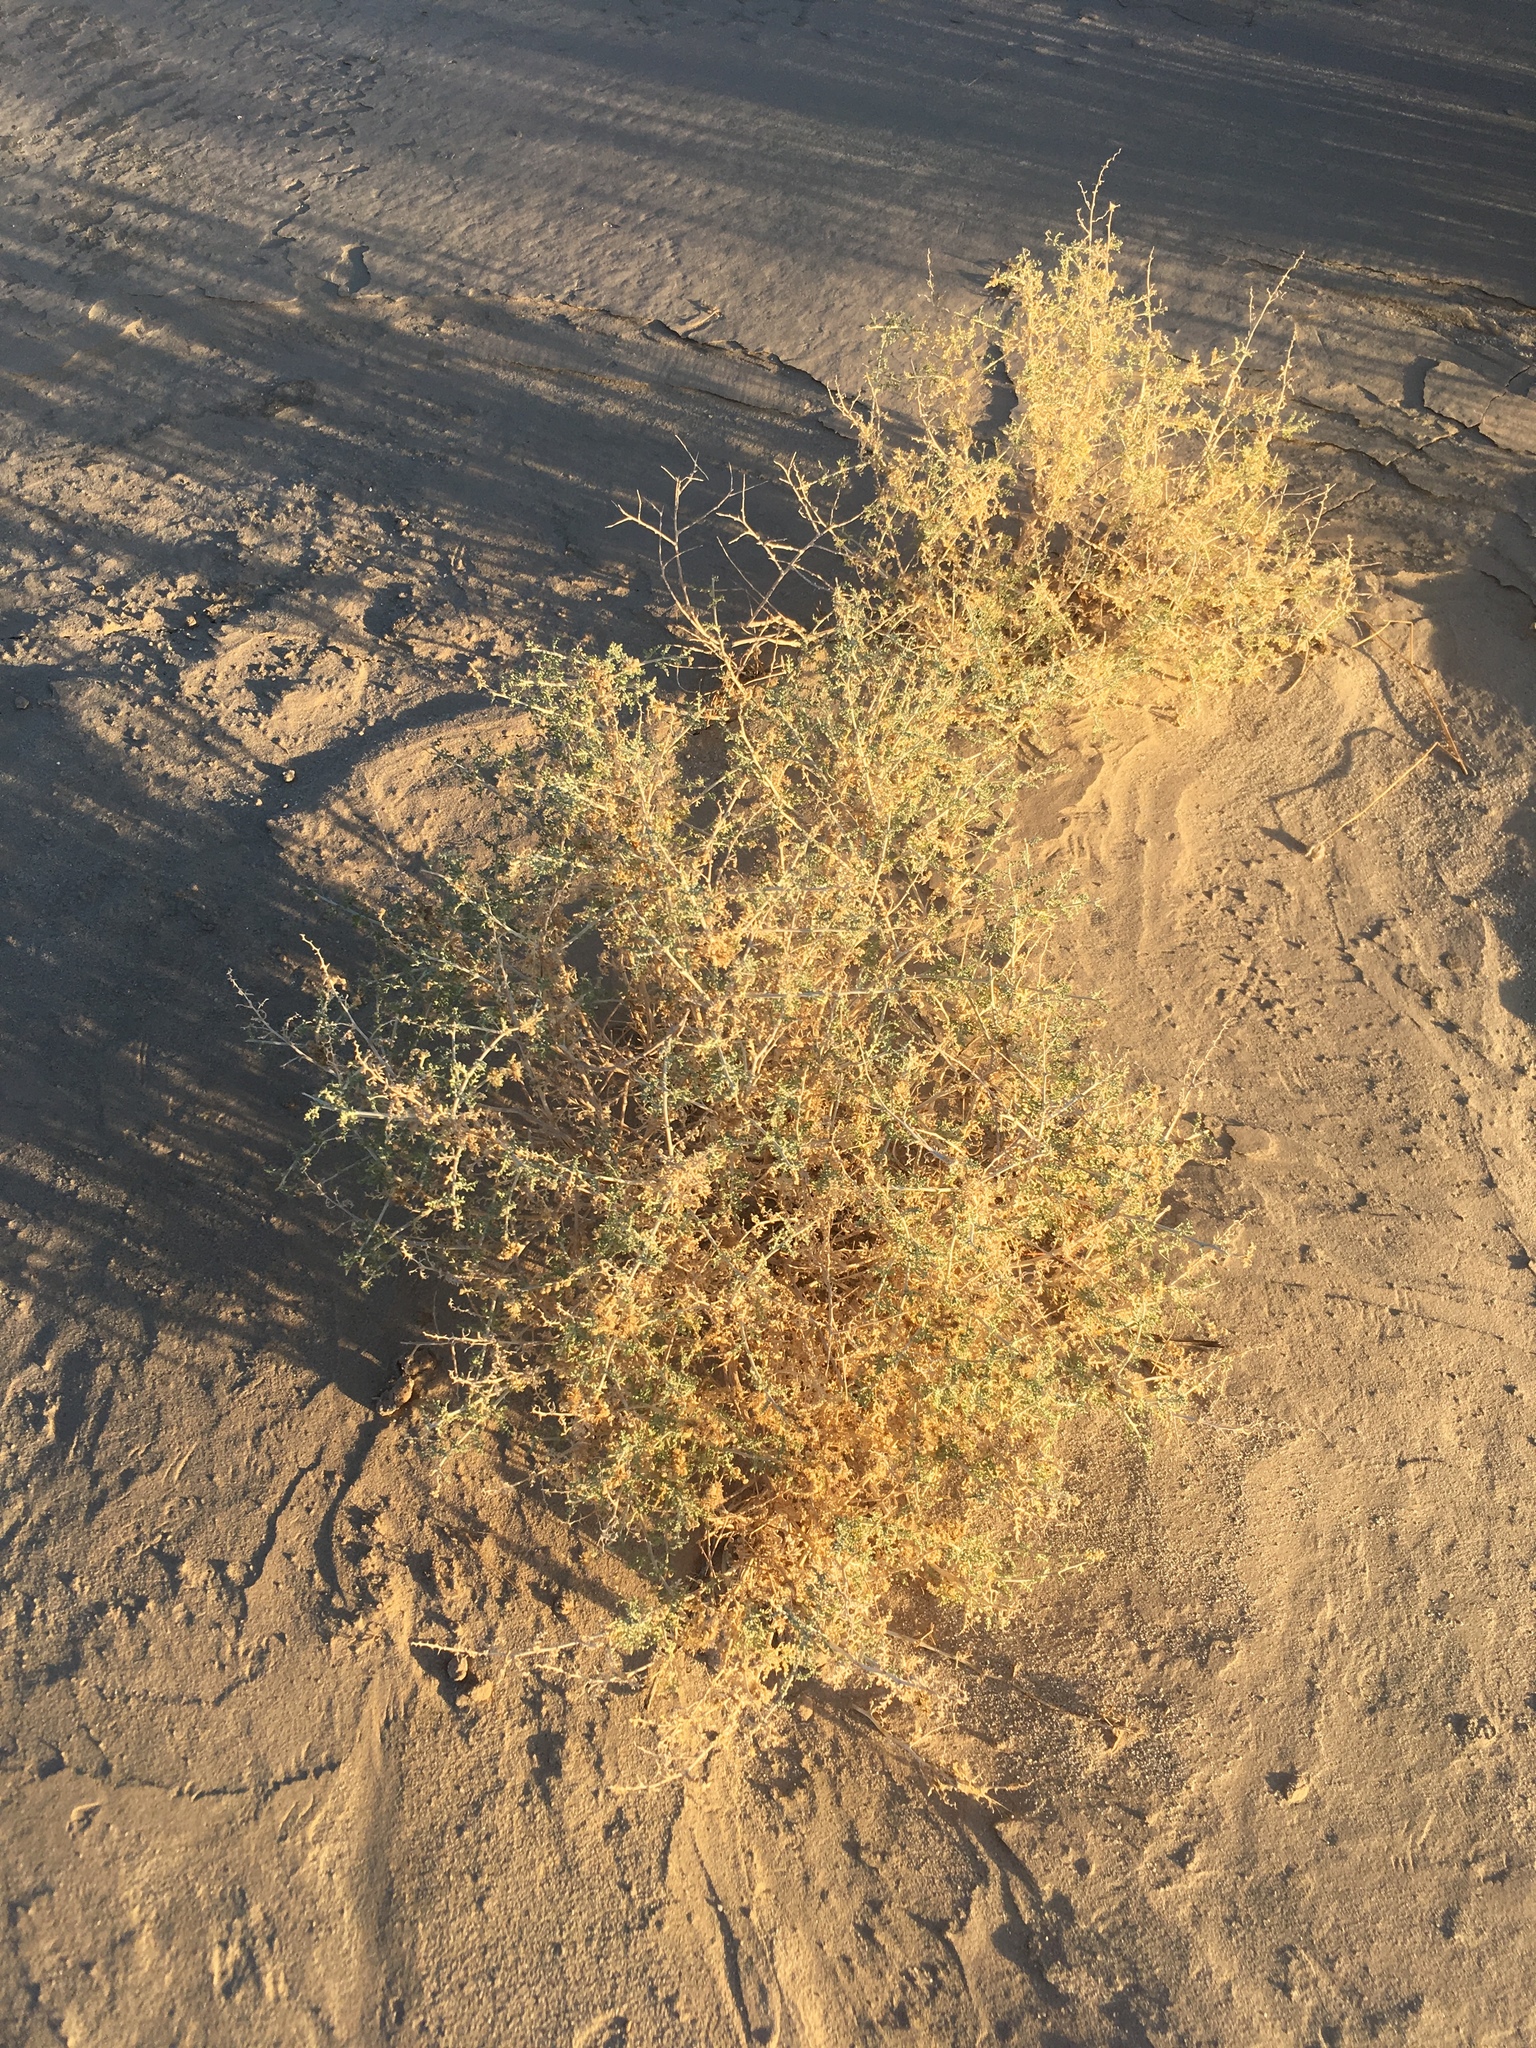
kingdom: Plantae
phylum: Tracheophyta
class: Magnoliopsida
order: Asterales
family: Asteraceae
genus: Ambrosia
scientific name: Ambrosia dumosa
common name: Bur-sage
